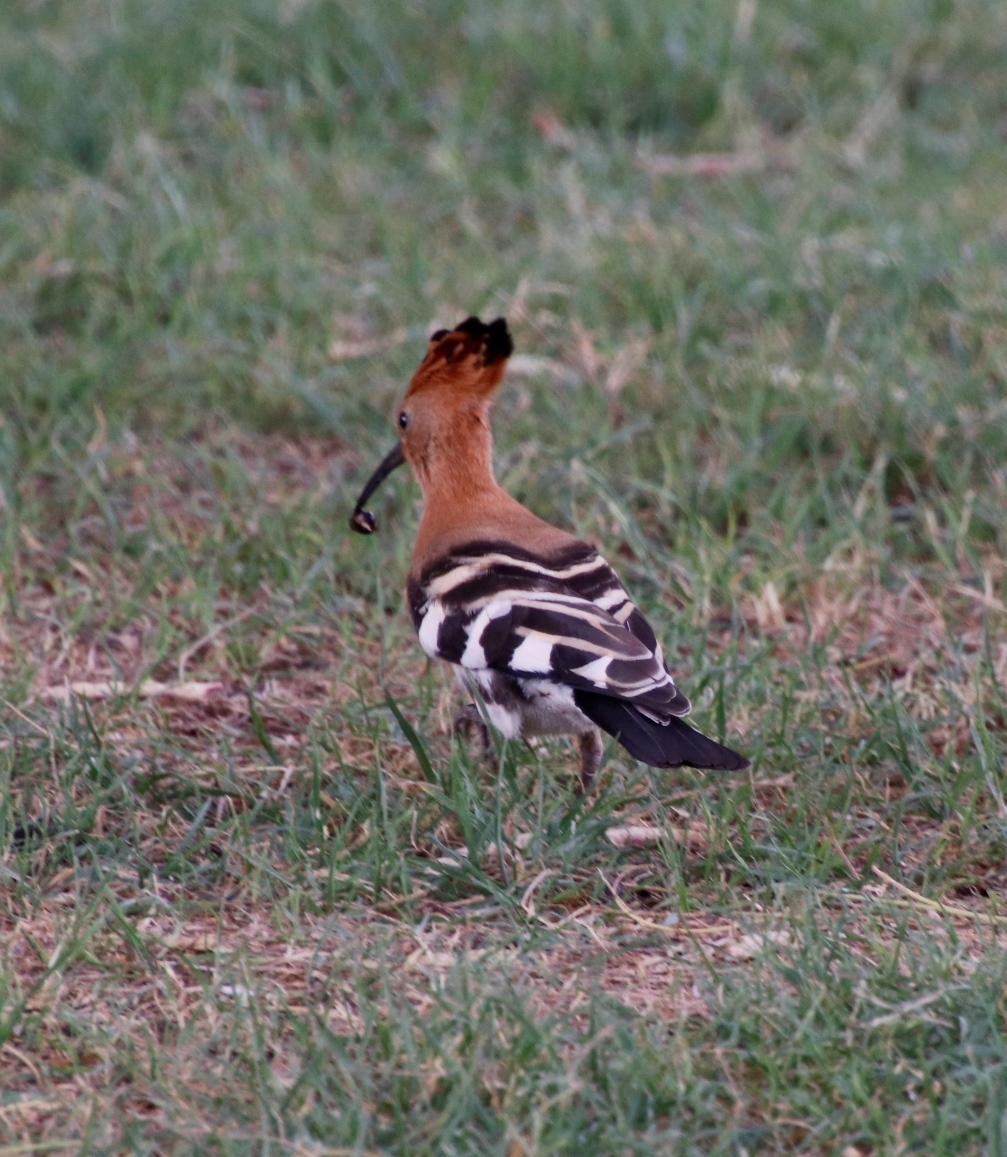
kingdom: Animalia
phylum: Chordata
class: Aves
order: Bucerotiformes
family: Upupidae
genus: Upupa
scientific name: Upupa africana
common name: African hoopoe
